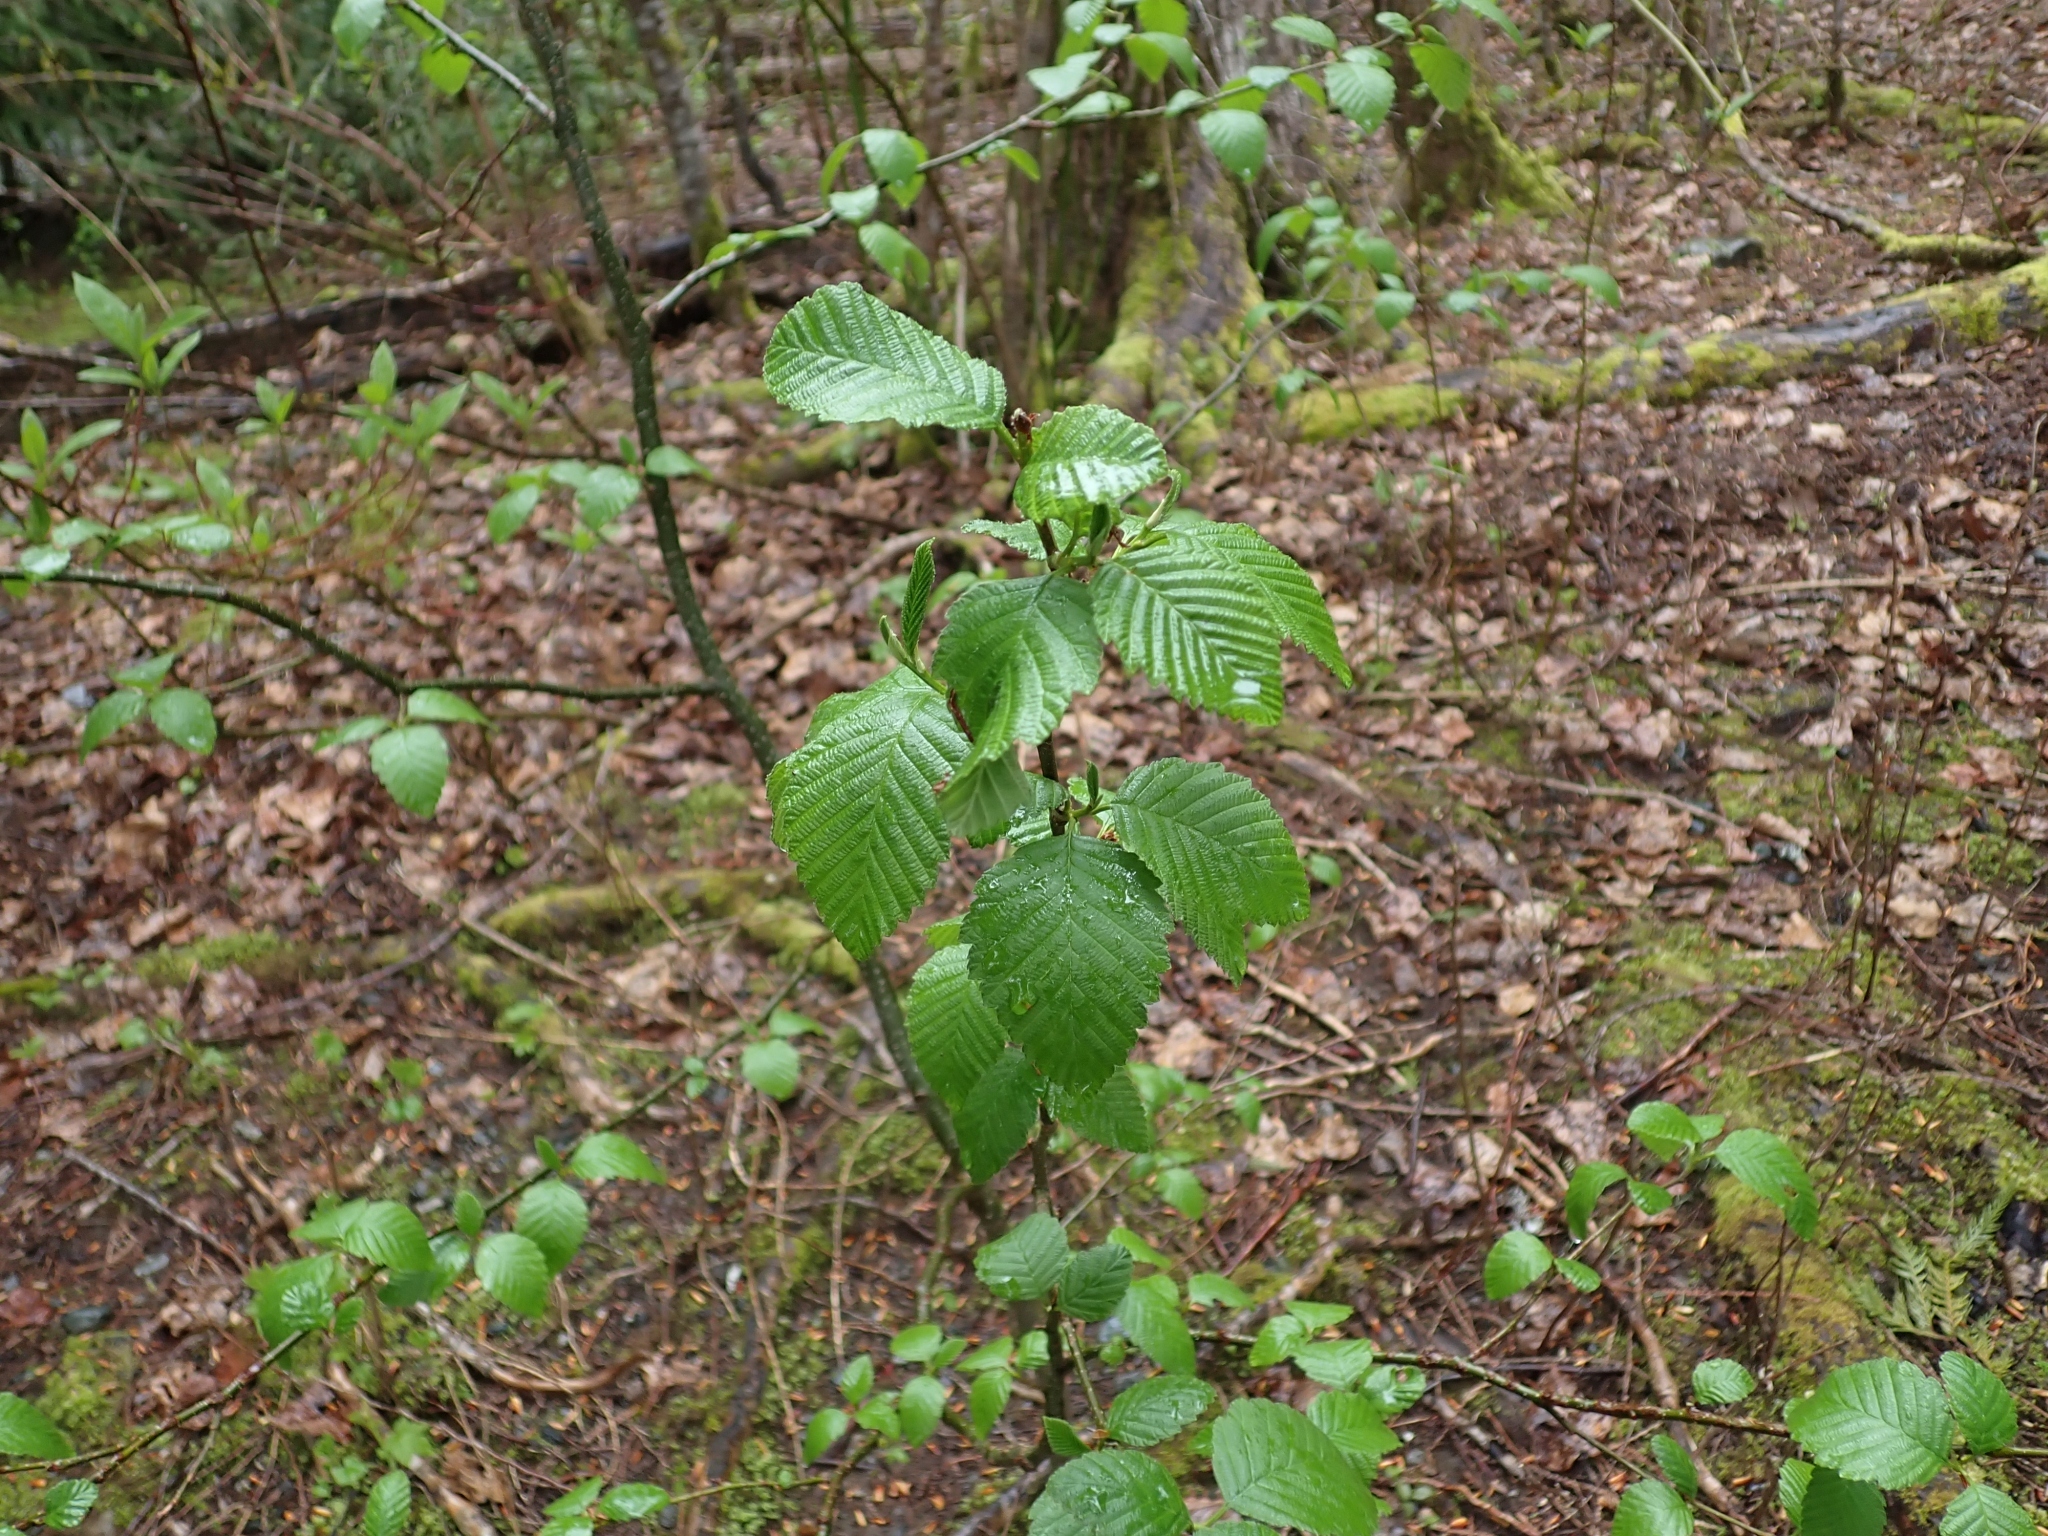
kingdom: Plantae
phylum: Tracheophyta
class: Magnoliopsida
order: Fagales
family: Betulaceae
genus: Alnus
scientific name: Alnus rubra
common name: Red alder
